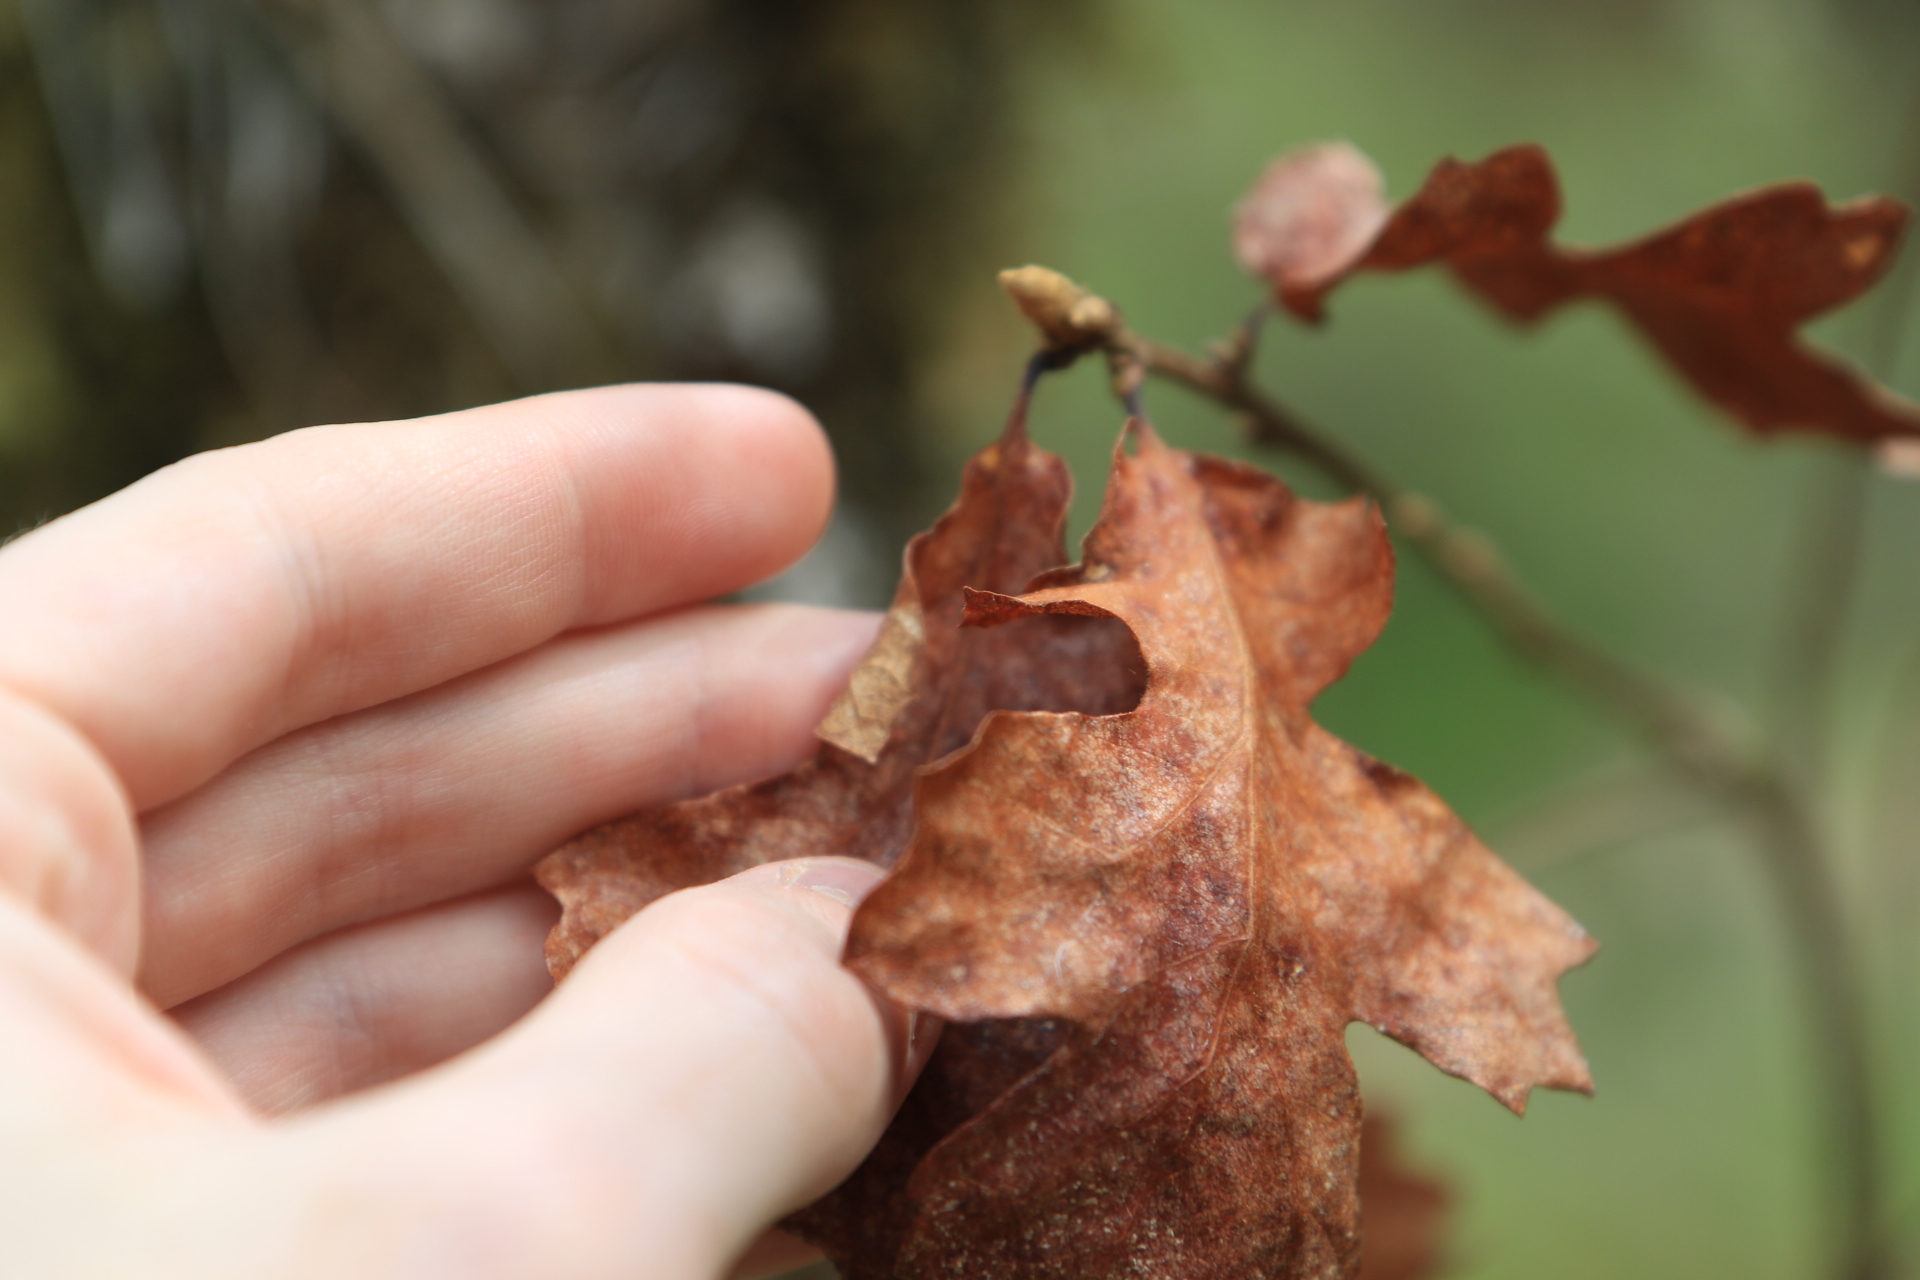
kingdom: Plantae
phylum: Tracheophyta
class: Magnoliopsida
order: Fagales
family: Fagaceae
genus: Quercus
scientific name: Quercus garryana
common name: Garry oak
